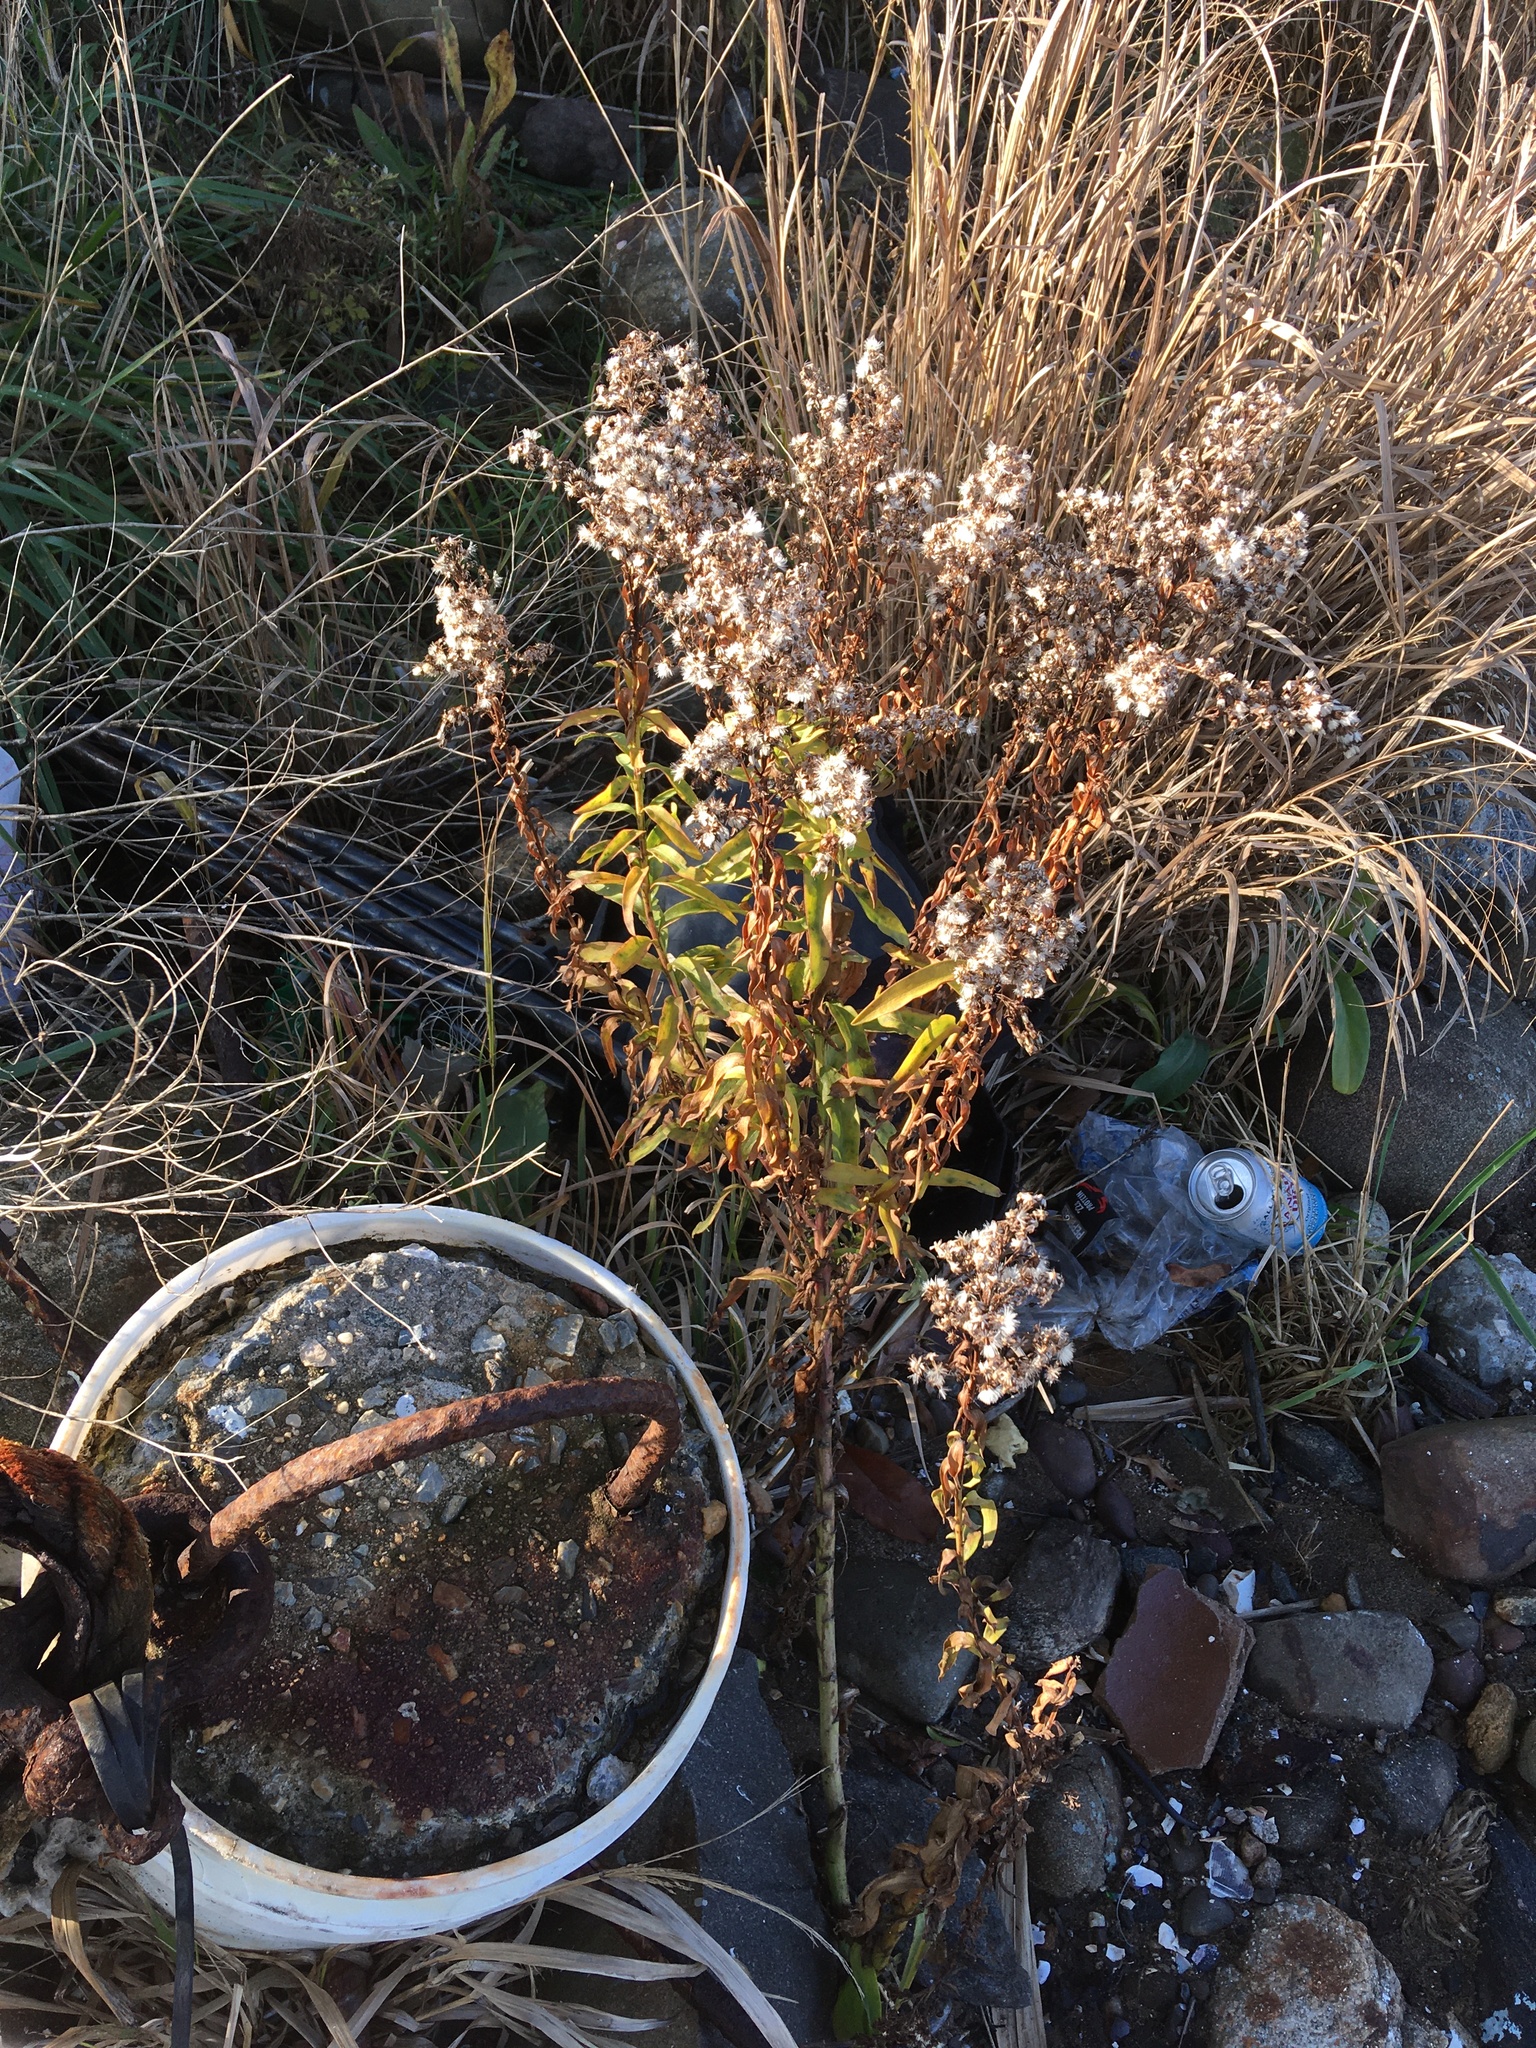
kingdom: Plantae
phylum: Tracheophyta
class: Magnoliopsida
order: Asterales
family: Asteraceae
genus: Solidago
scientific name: Solidago sempervirens
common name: Salt-marsh goldenrod
